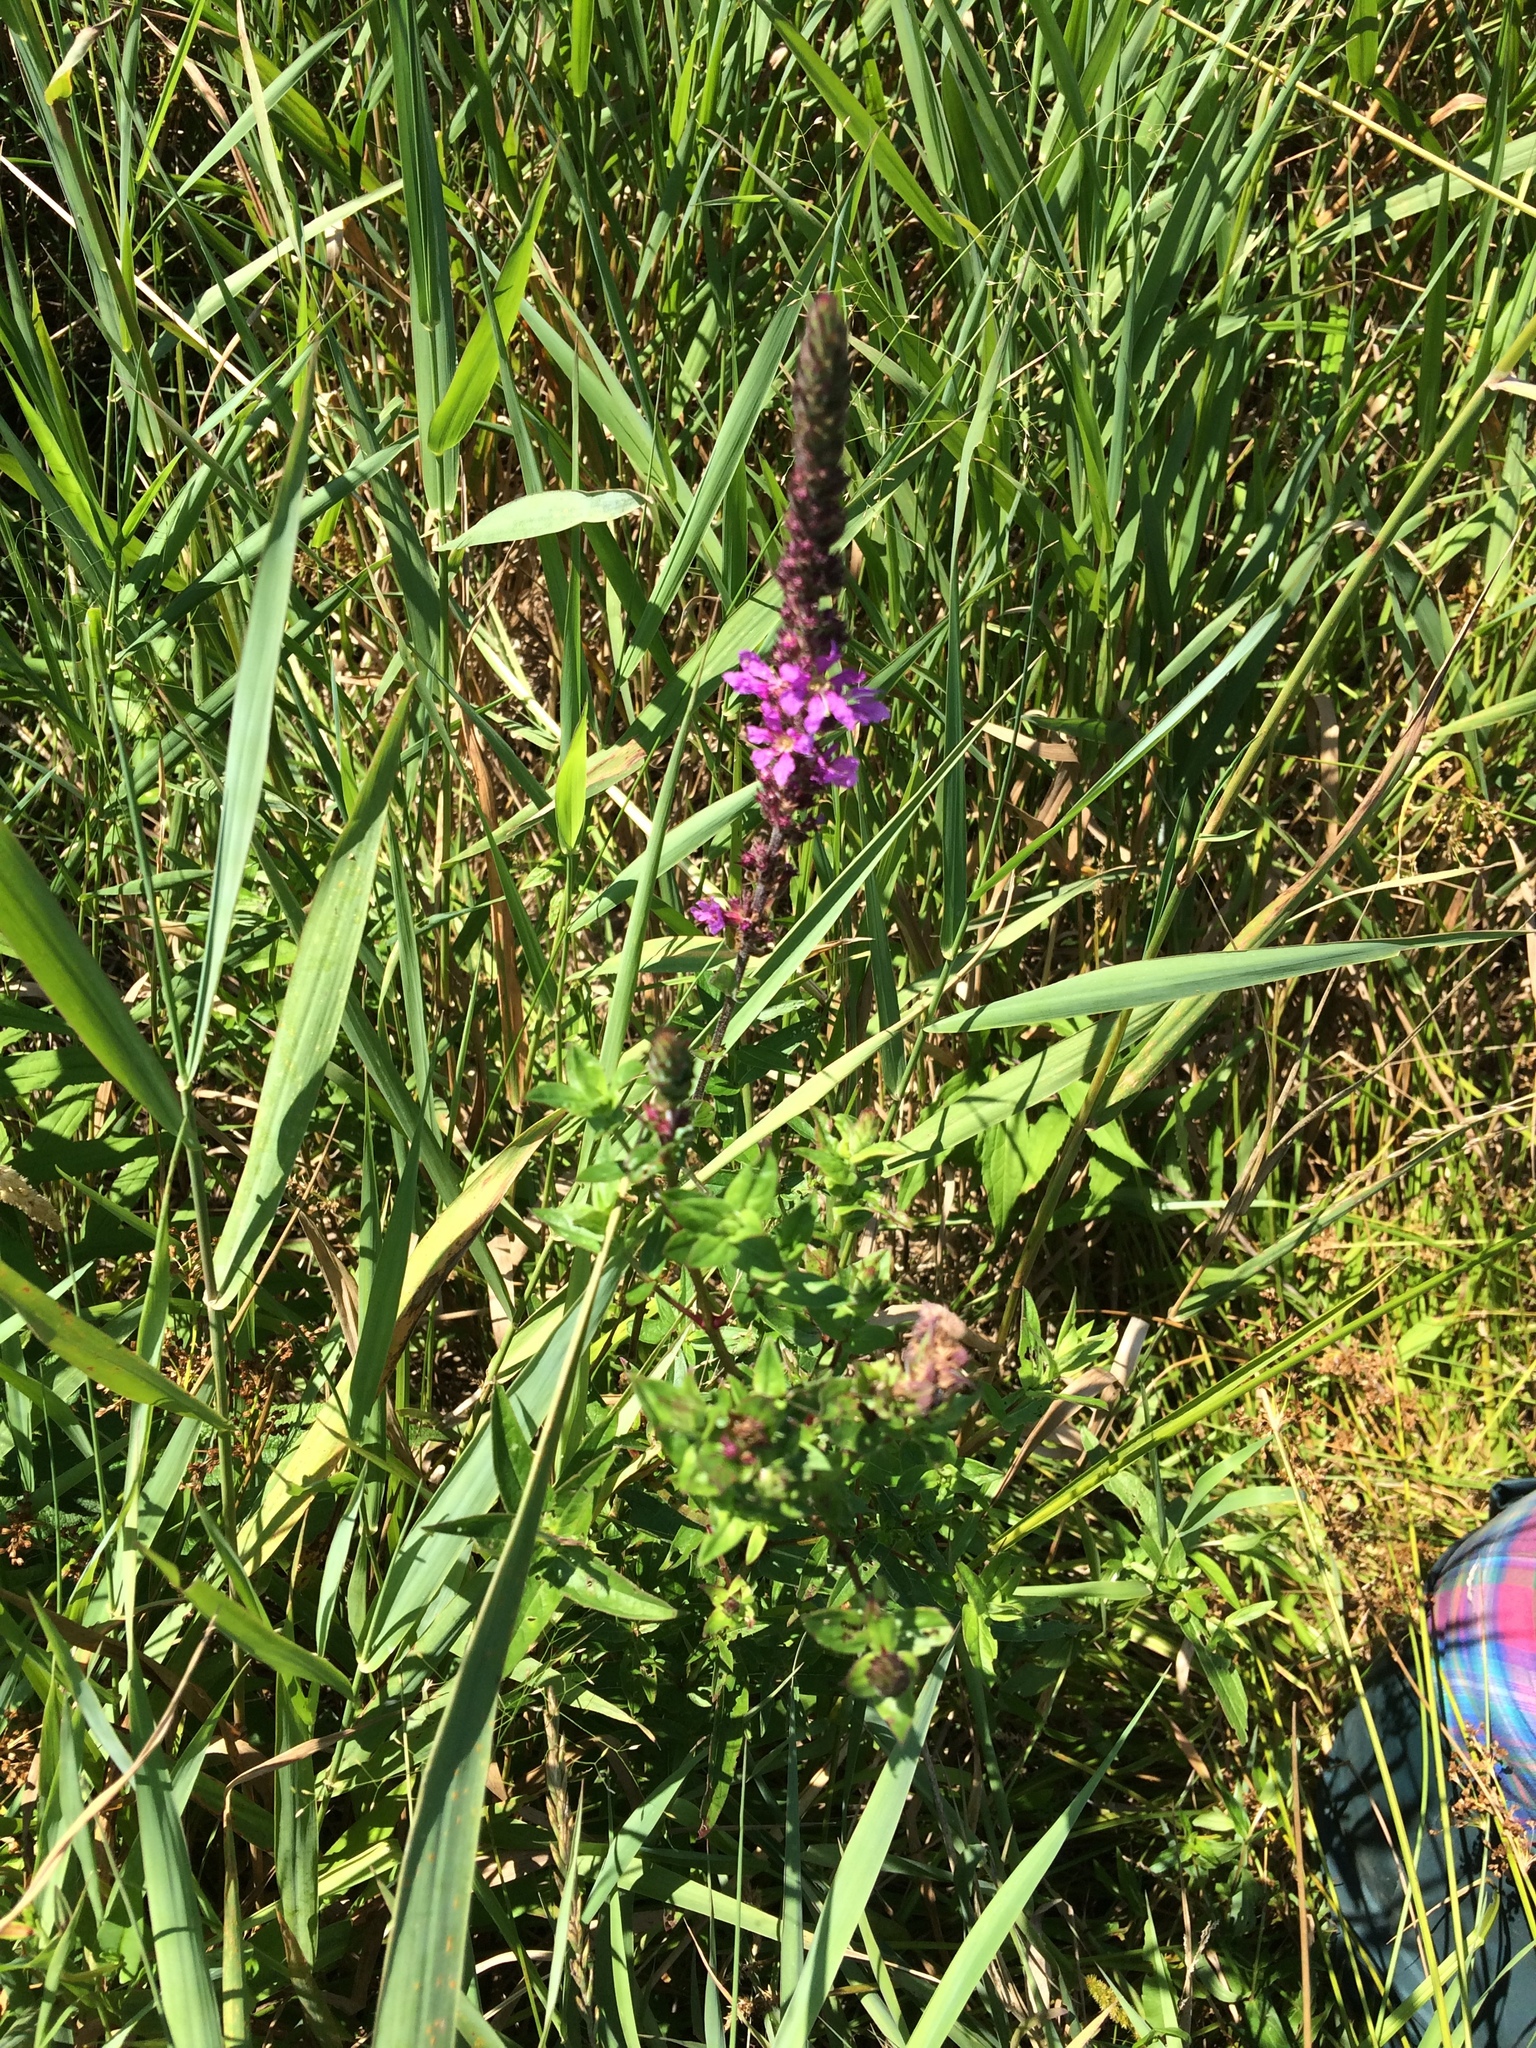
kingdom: Plantae
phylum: Tracheophyta
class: Magnoliopsida
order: Myrtales
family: Lythraceae
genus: Lythrum
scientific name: Lythrum salicaria
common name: Purple loosestrife
